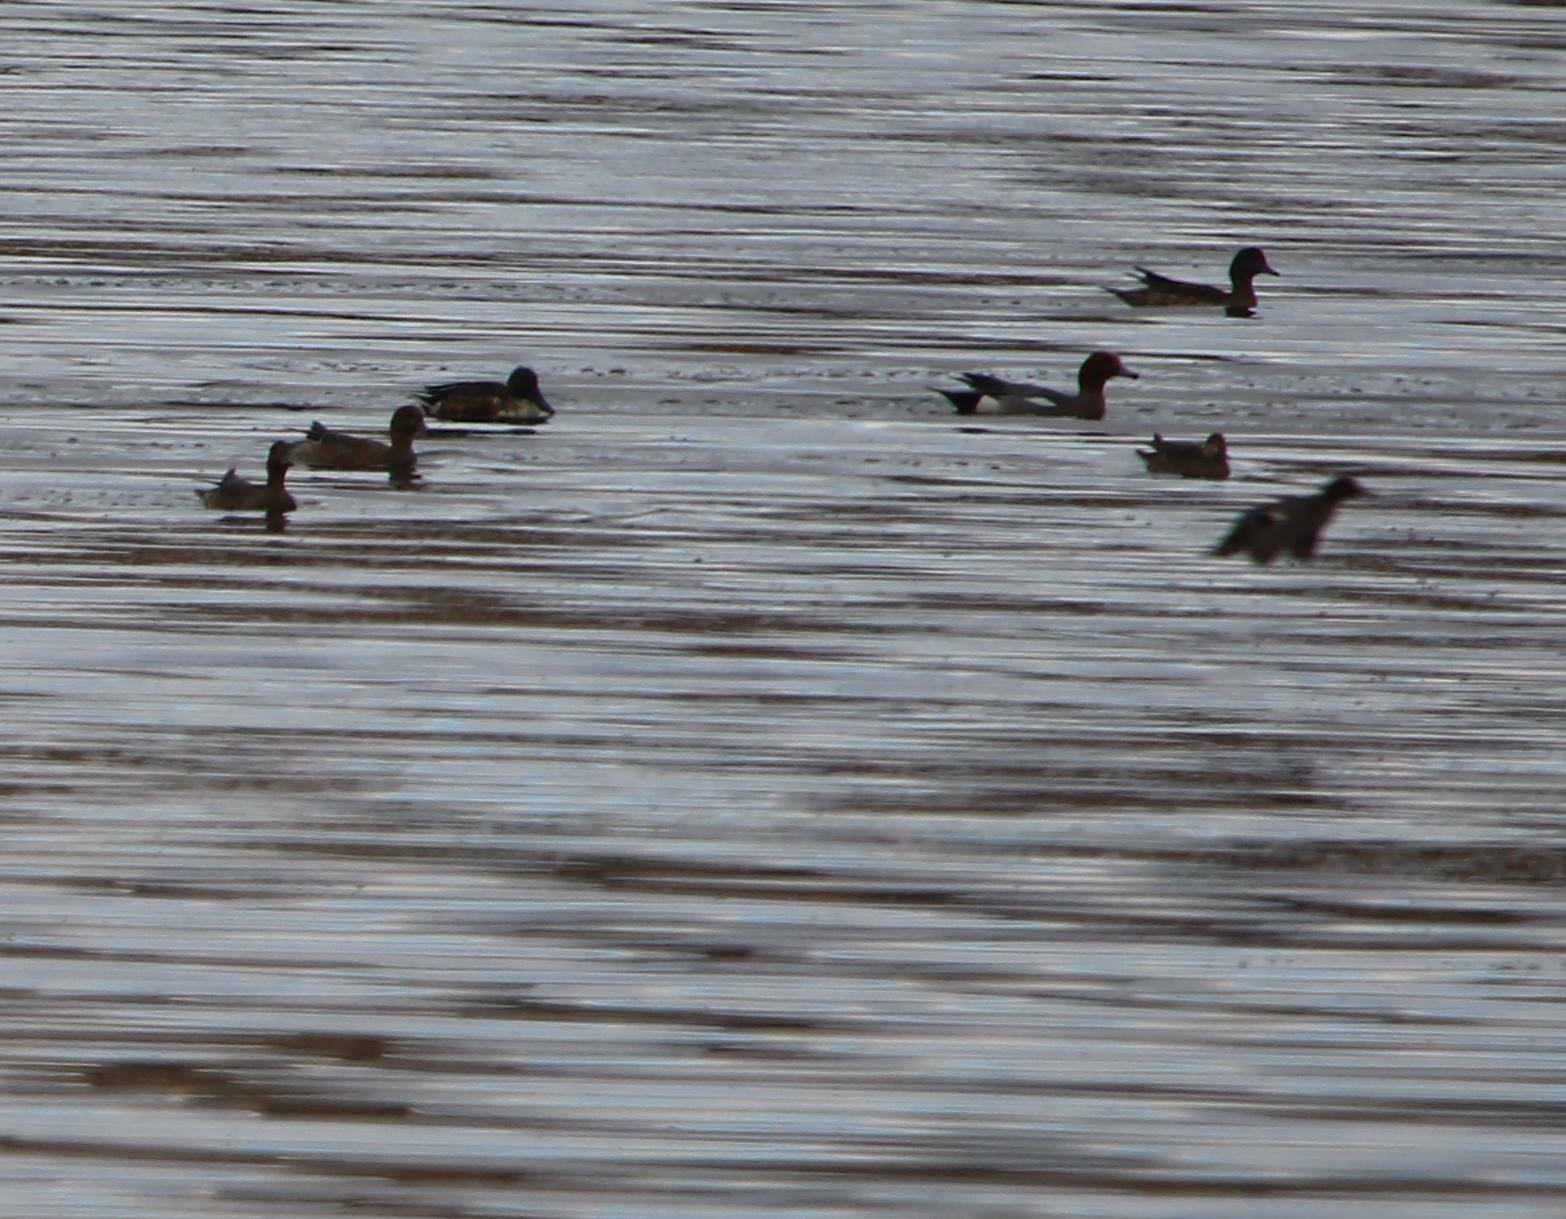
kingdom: Animalia
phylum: Chordata
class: Aves
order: Anseriformes
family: Anatidae
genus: Mareca
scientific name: Mareca penelope
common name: Eurasian wigeon
